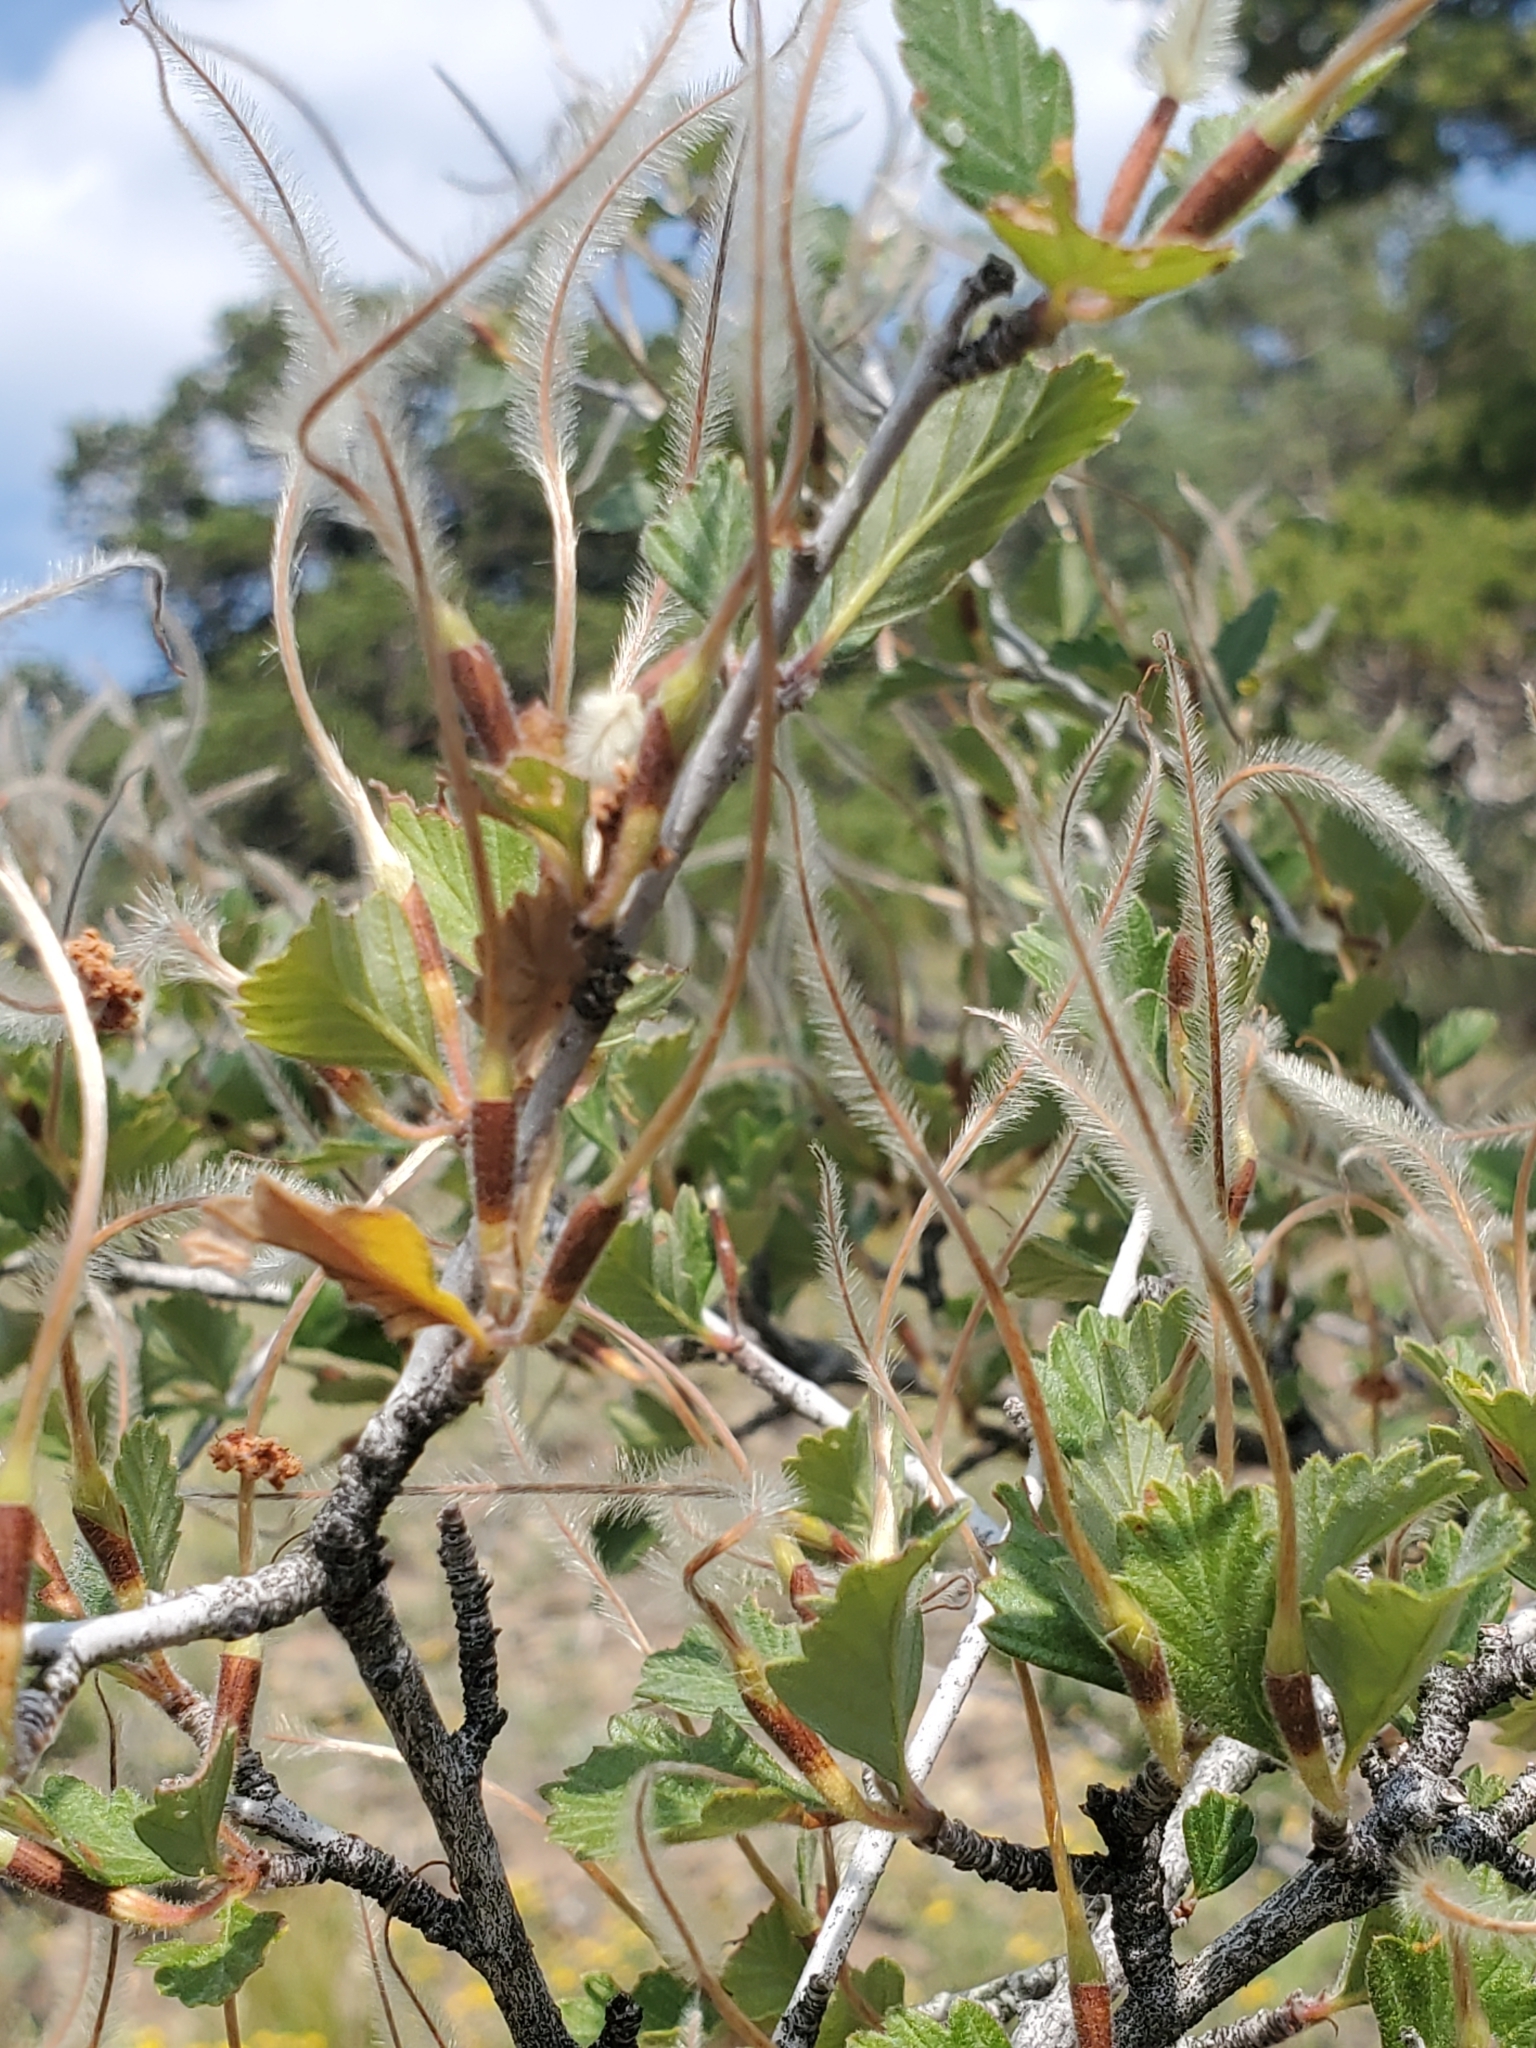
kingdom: Plantae
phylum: Tracheophyta
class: Magnoliopsida
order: Rosales
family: Rosaceae
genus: Cercocarpus
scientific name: Cercocarpus montanus
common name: Alder-leaf cercocarpus
